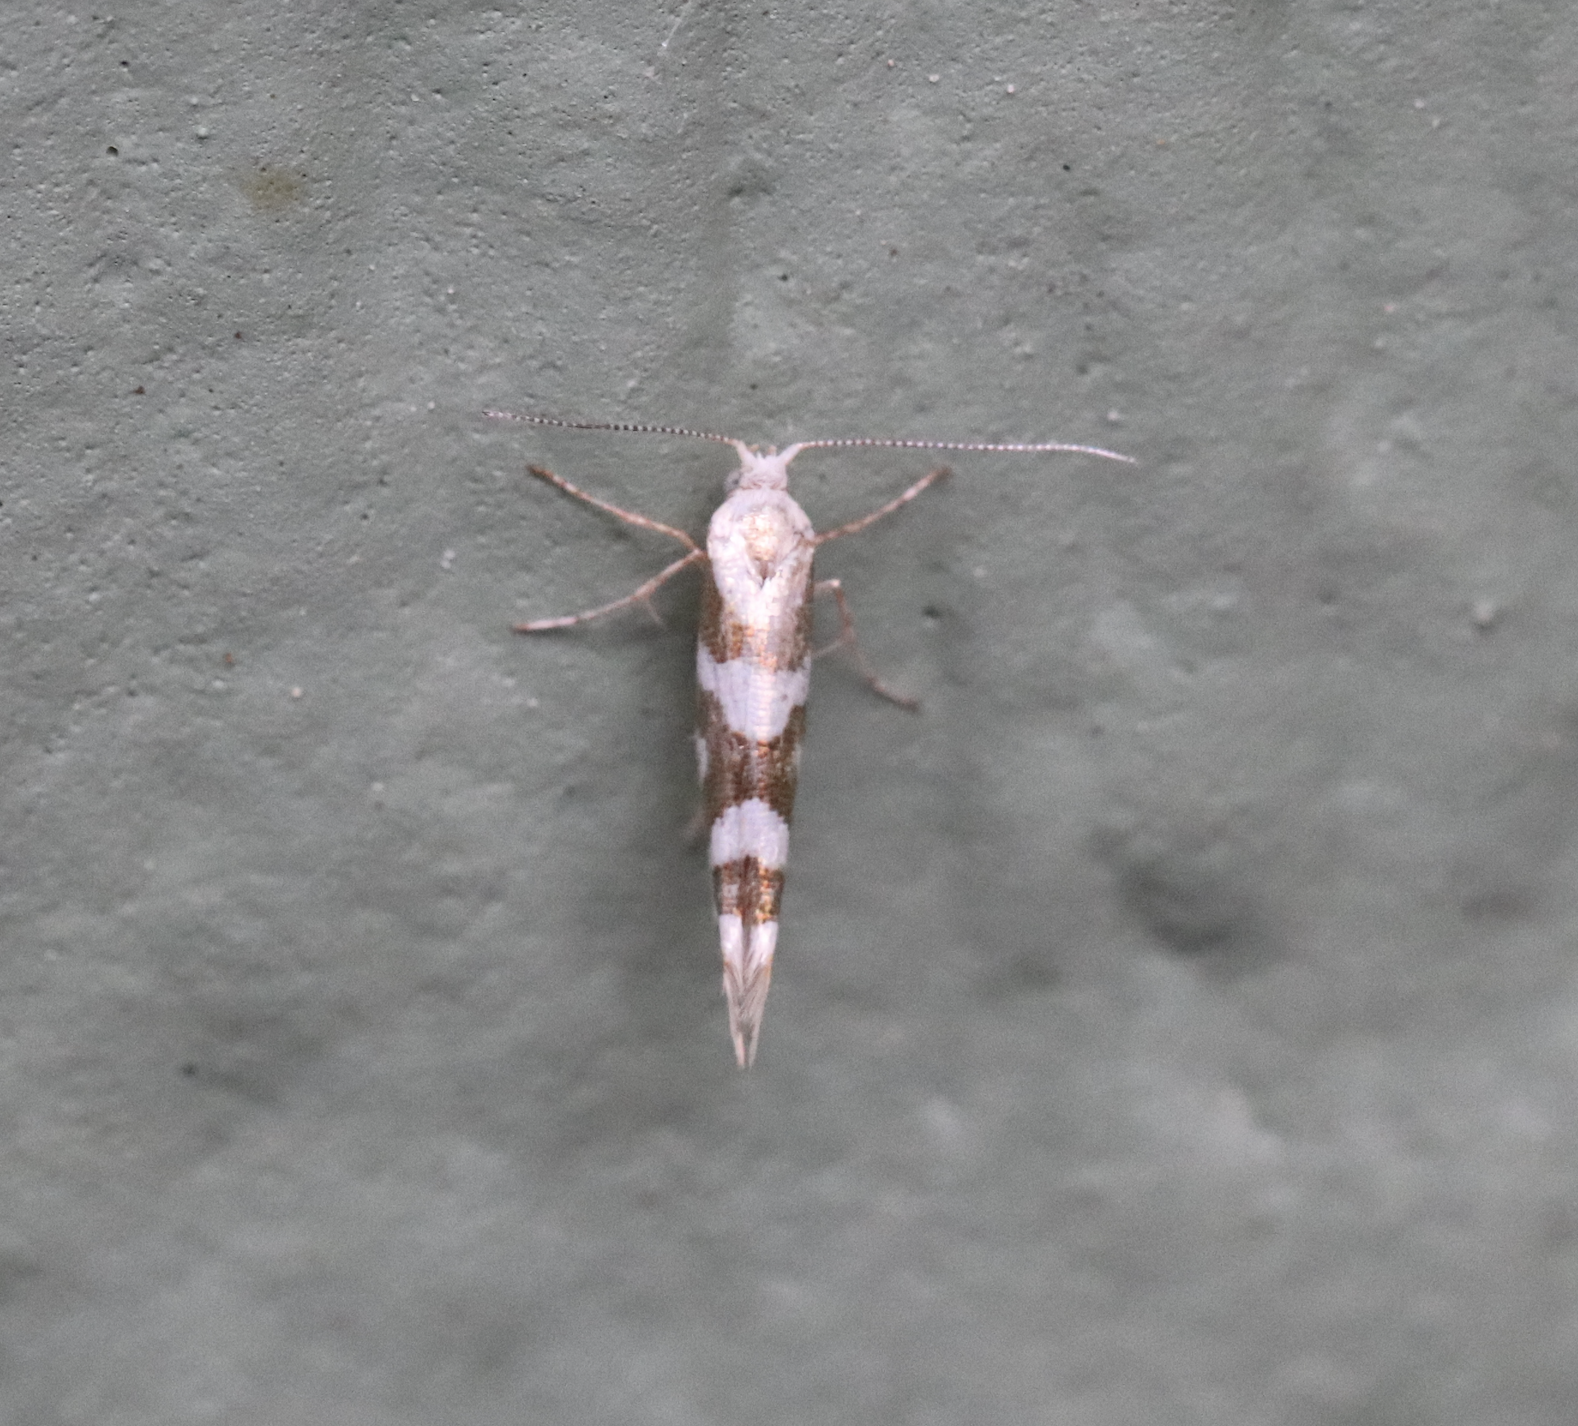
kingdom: Animalia
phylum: Arthropoda
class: Insecta
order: Lepidoptera
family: Argyresthiidae
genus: Argyresthia
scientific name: Argyresthia calliphanes
